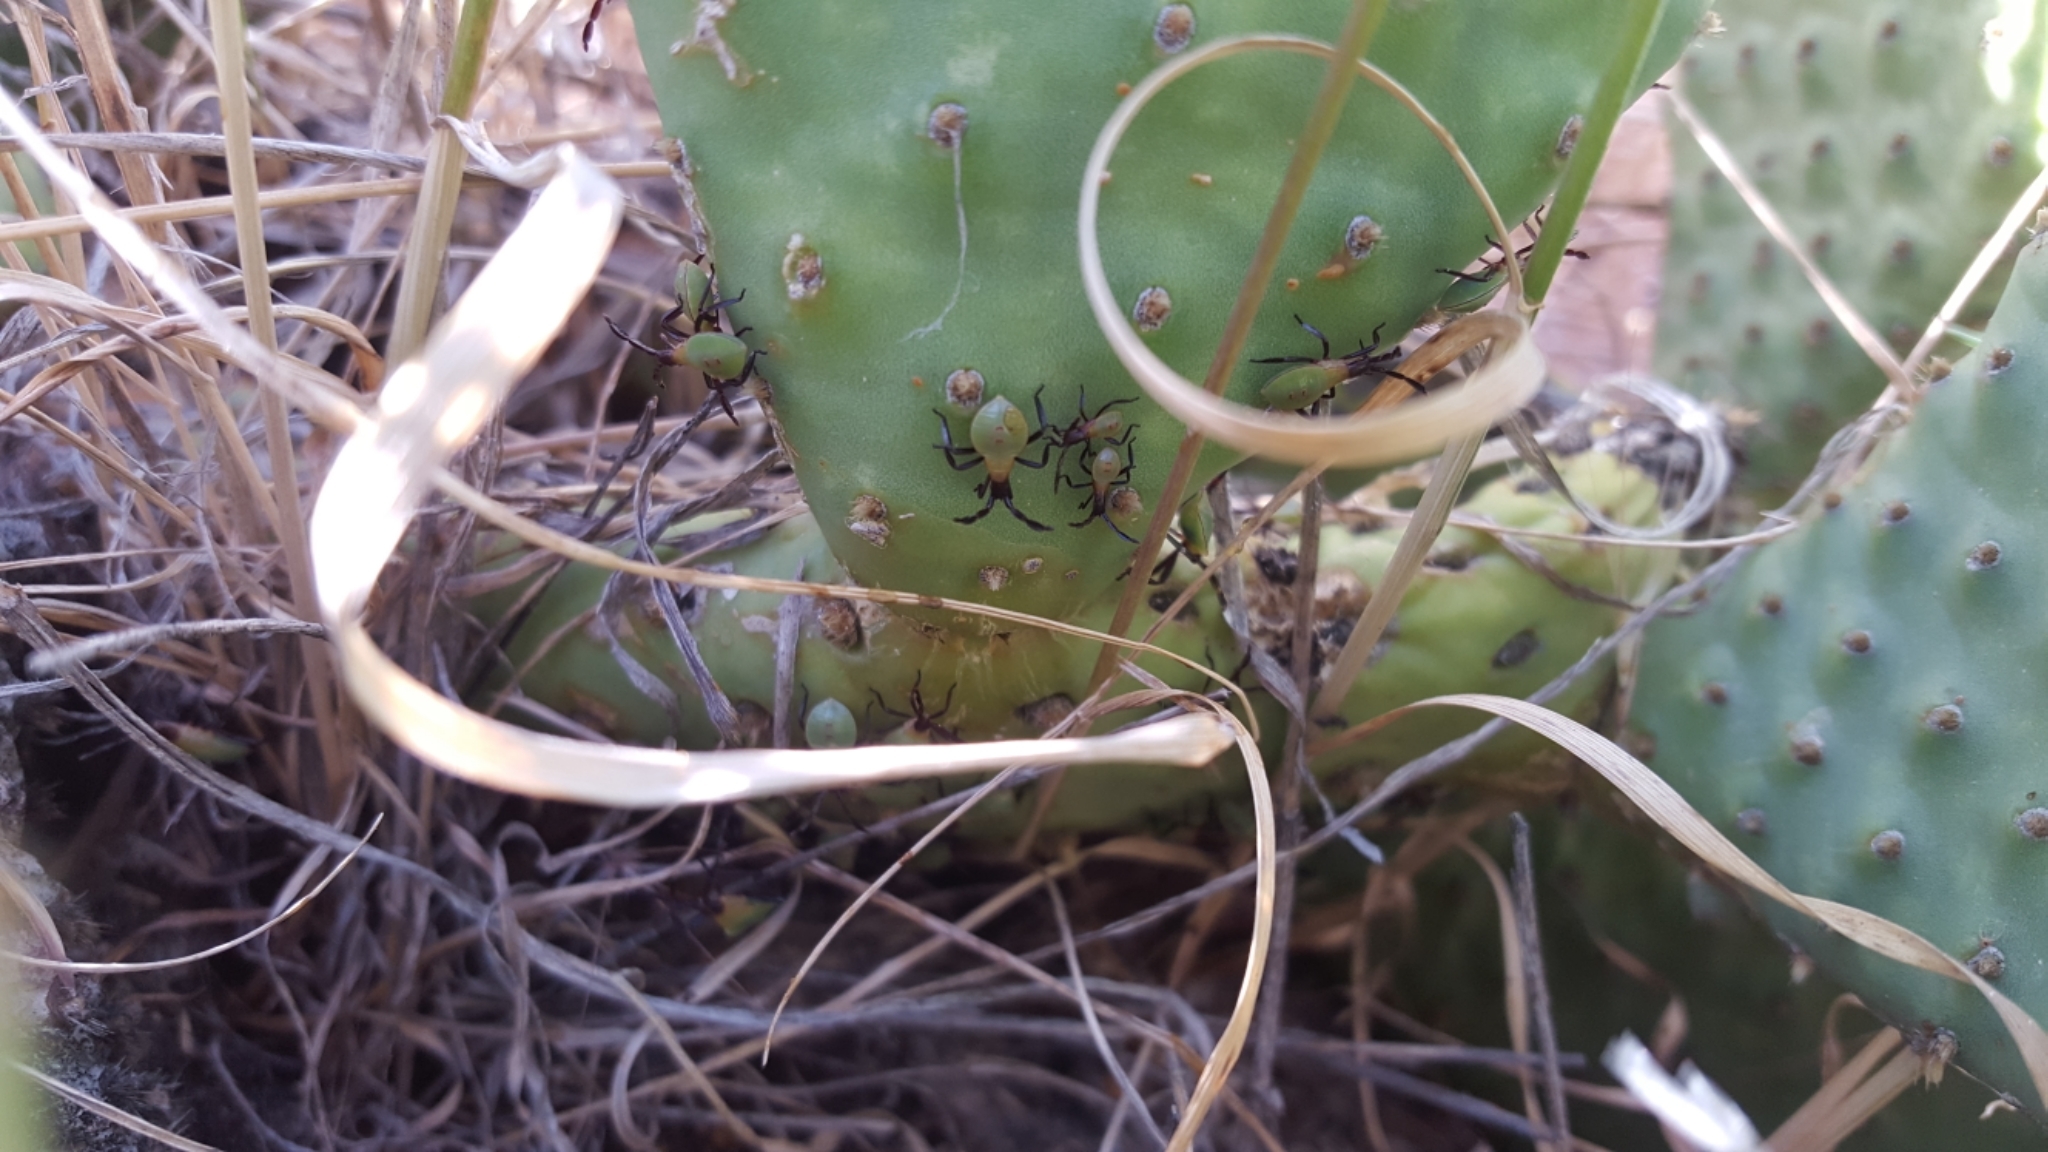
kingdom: Animalia
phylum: Arthropoda
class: Insecta
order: Hemiptera
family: Coreidae
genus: Chelinidea
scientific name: Chelinidea vittiger
